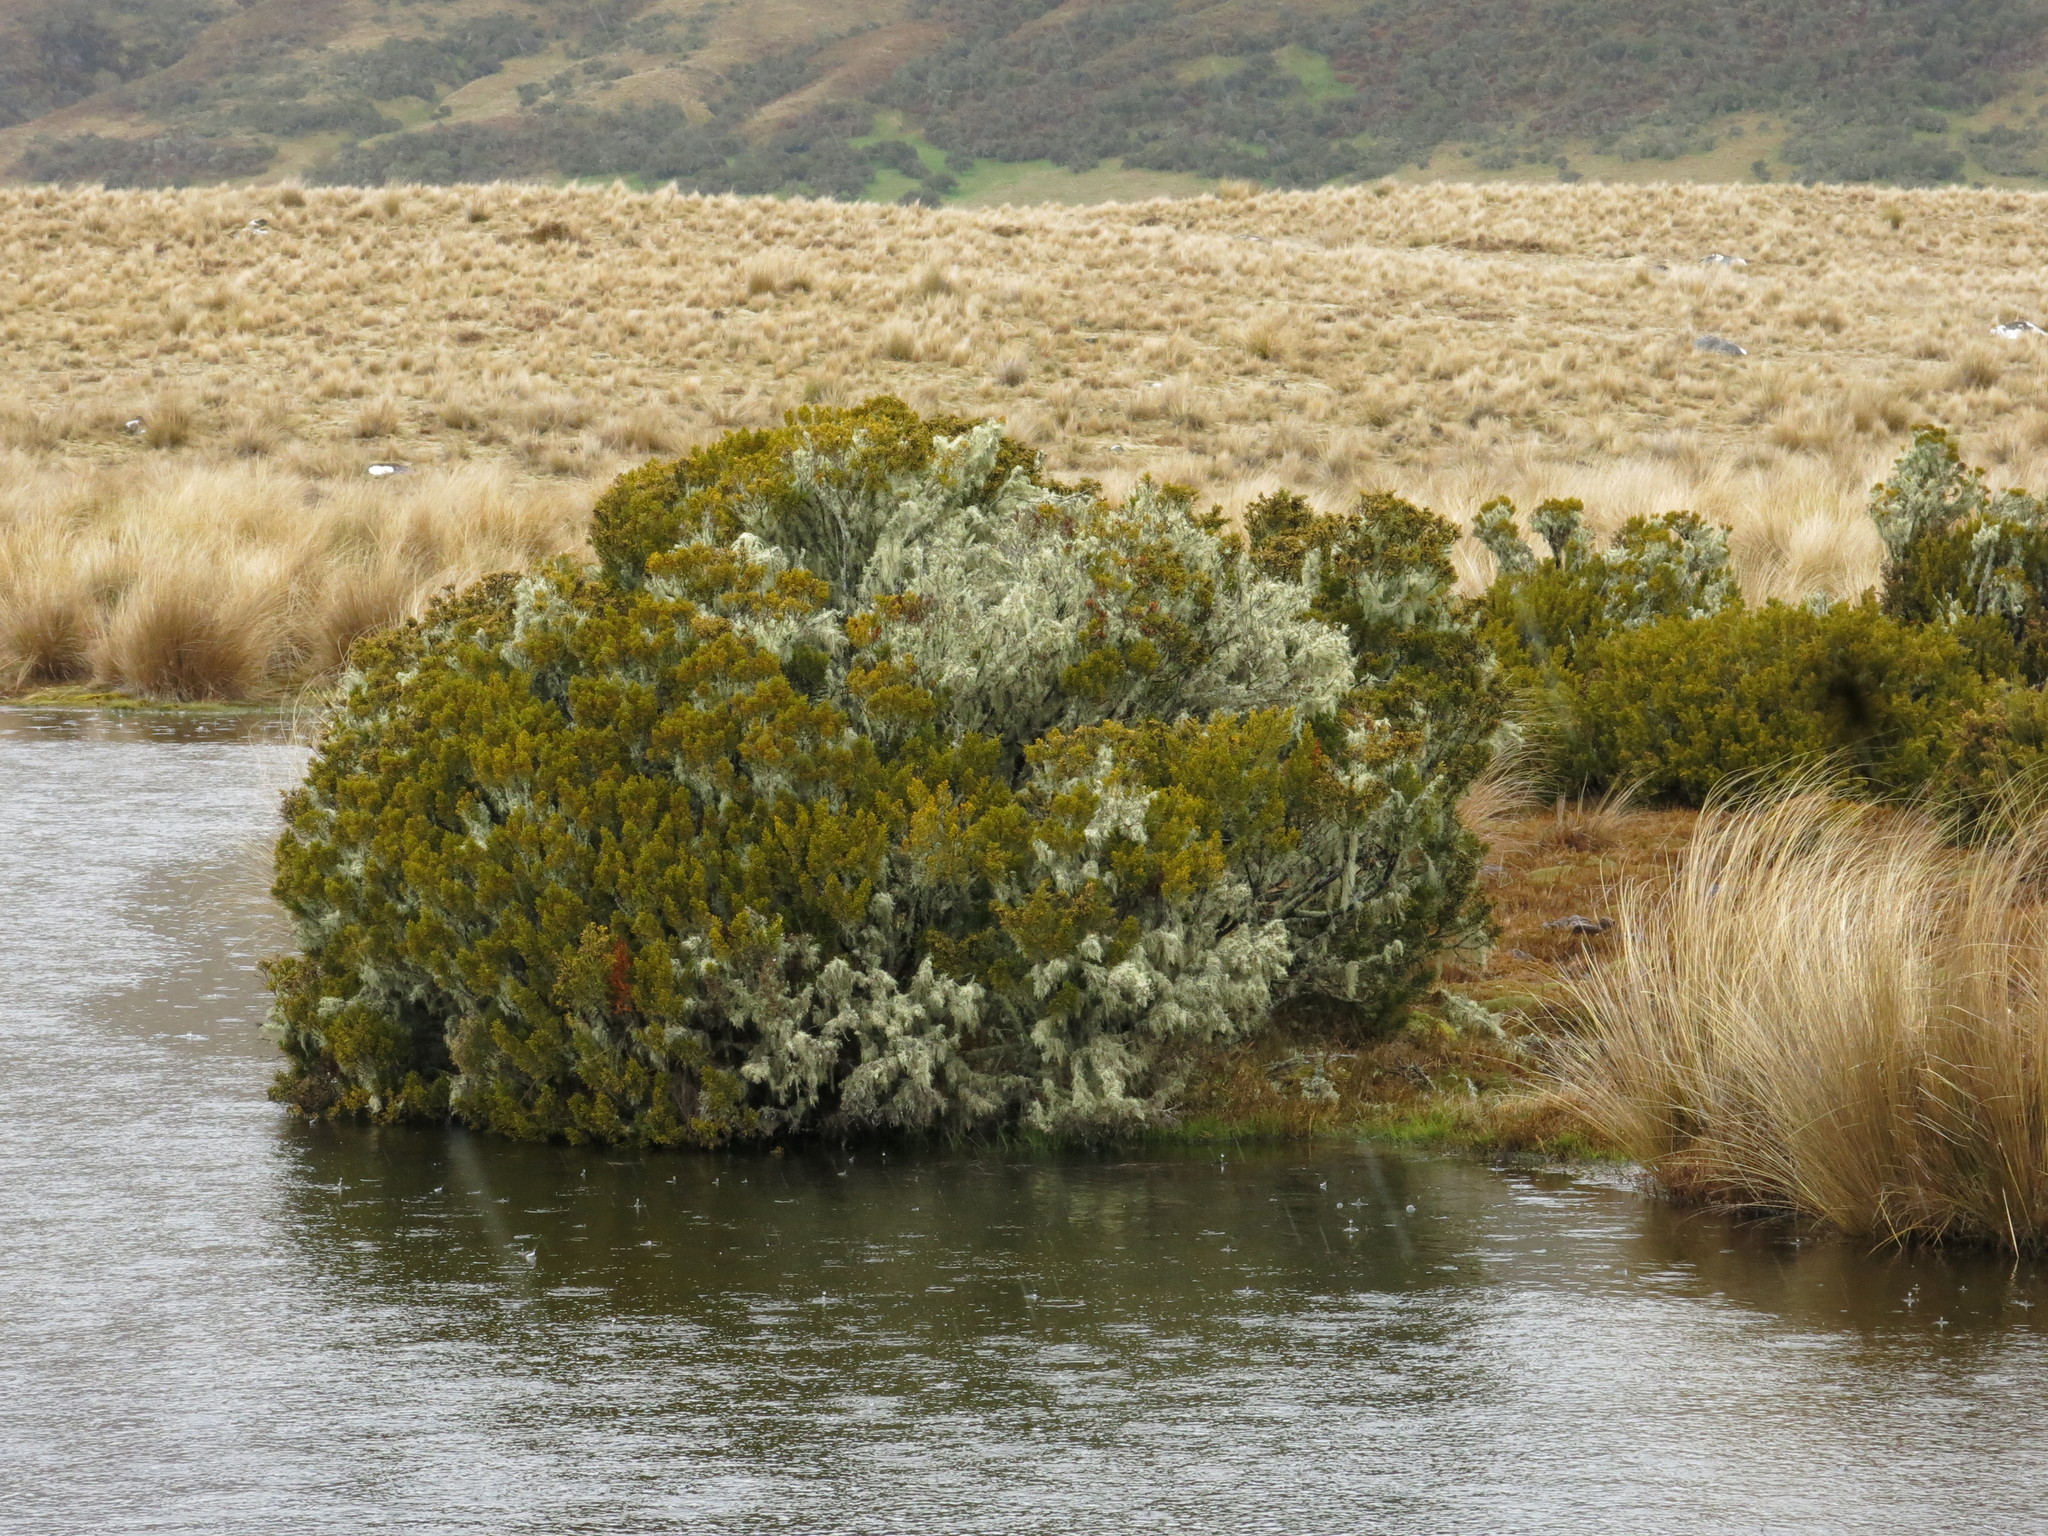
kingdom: Plantae
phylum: Tracheophyta
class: Pinopsida
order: Pinales
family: Podocarpaceae
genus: Halocarpus
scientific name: Halocarpus bidwillii
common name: Bog pine
